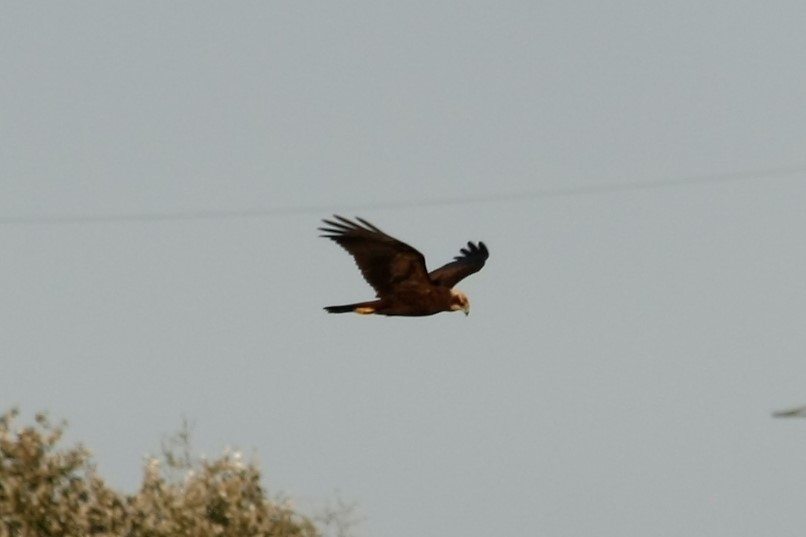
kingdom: Animalia
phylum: Chordata
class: Aves
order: Accipitriformes
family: Accipitridae
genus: Circus
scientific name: Circus aeruginosus
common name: Western marsh harrier
